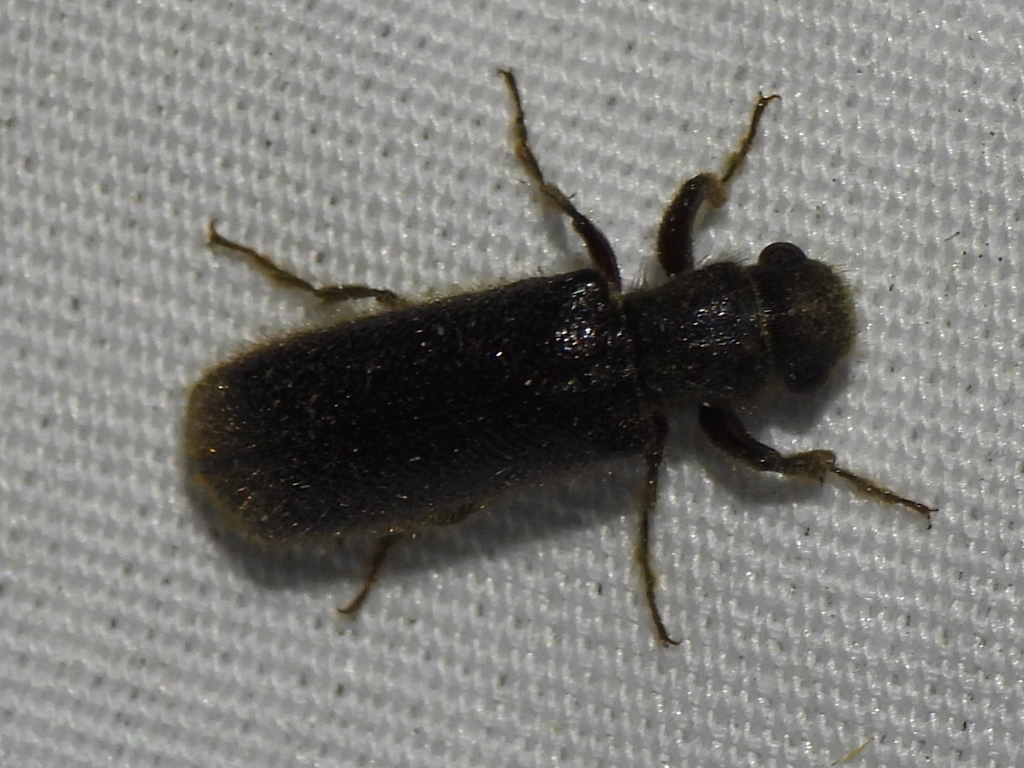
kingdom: Animalia
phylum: Arthropoda
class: Insecta
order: Coleoptera
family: Bostrichidae
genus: Melalgus
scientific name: Melalgus plicatus
